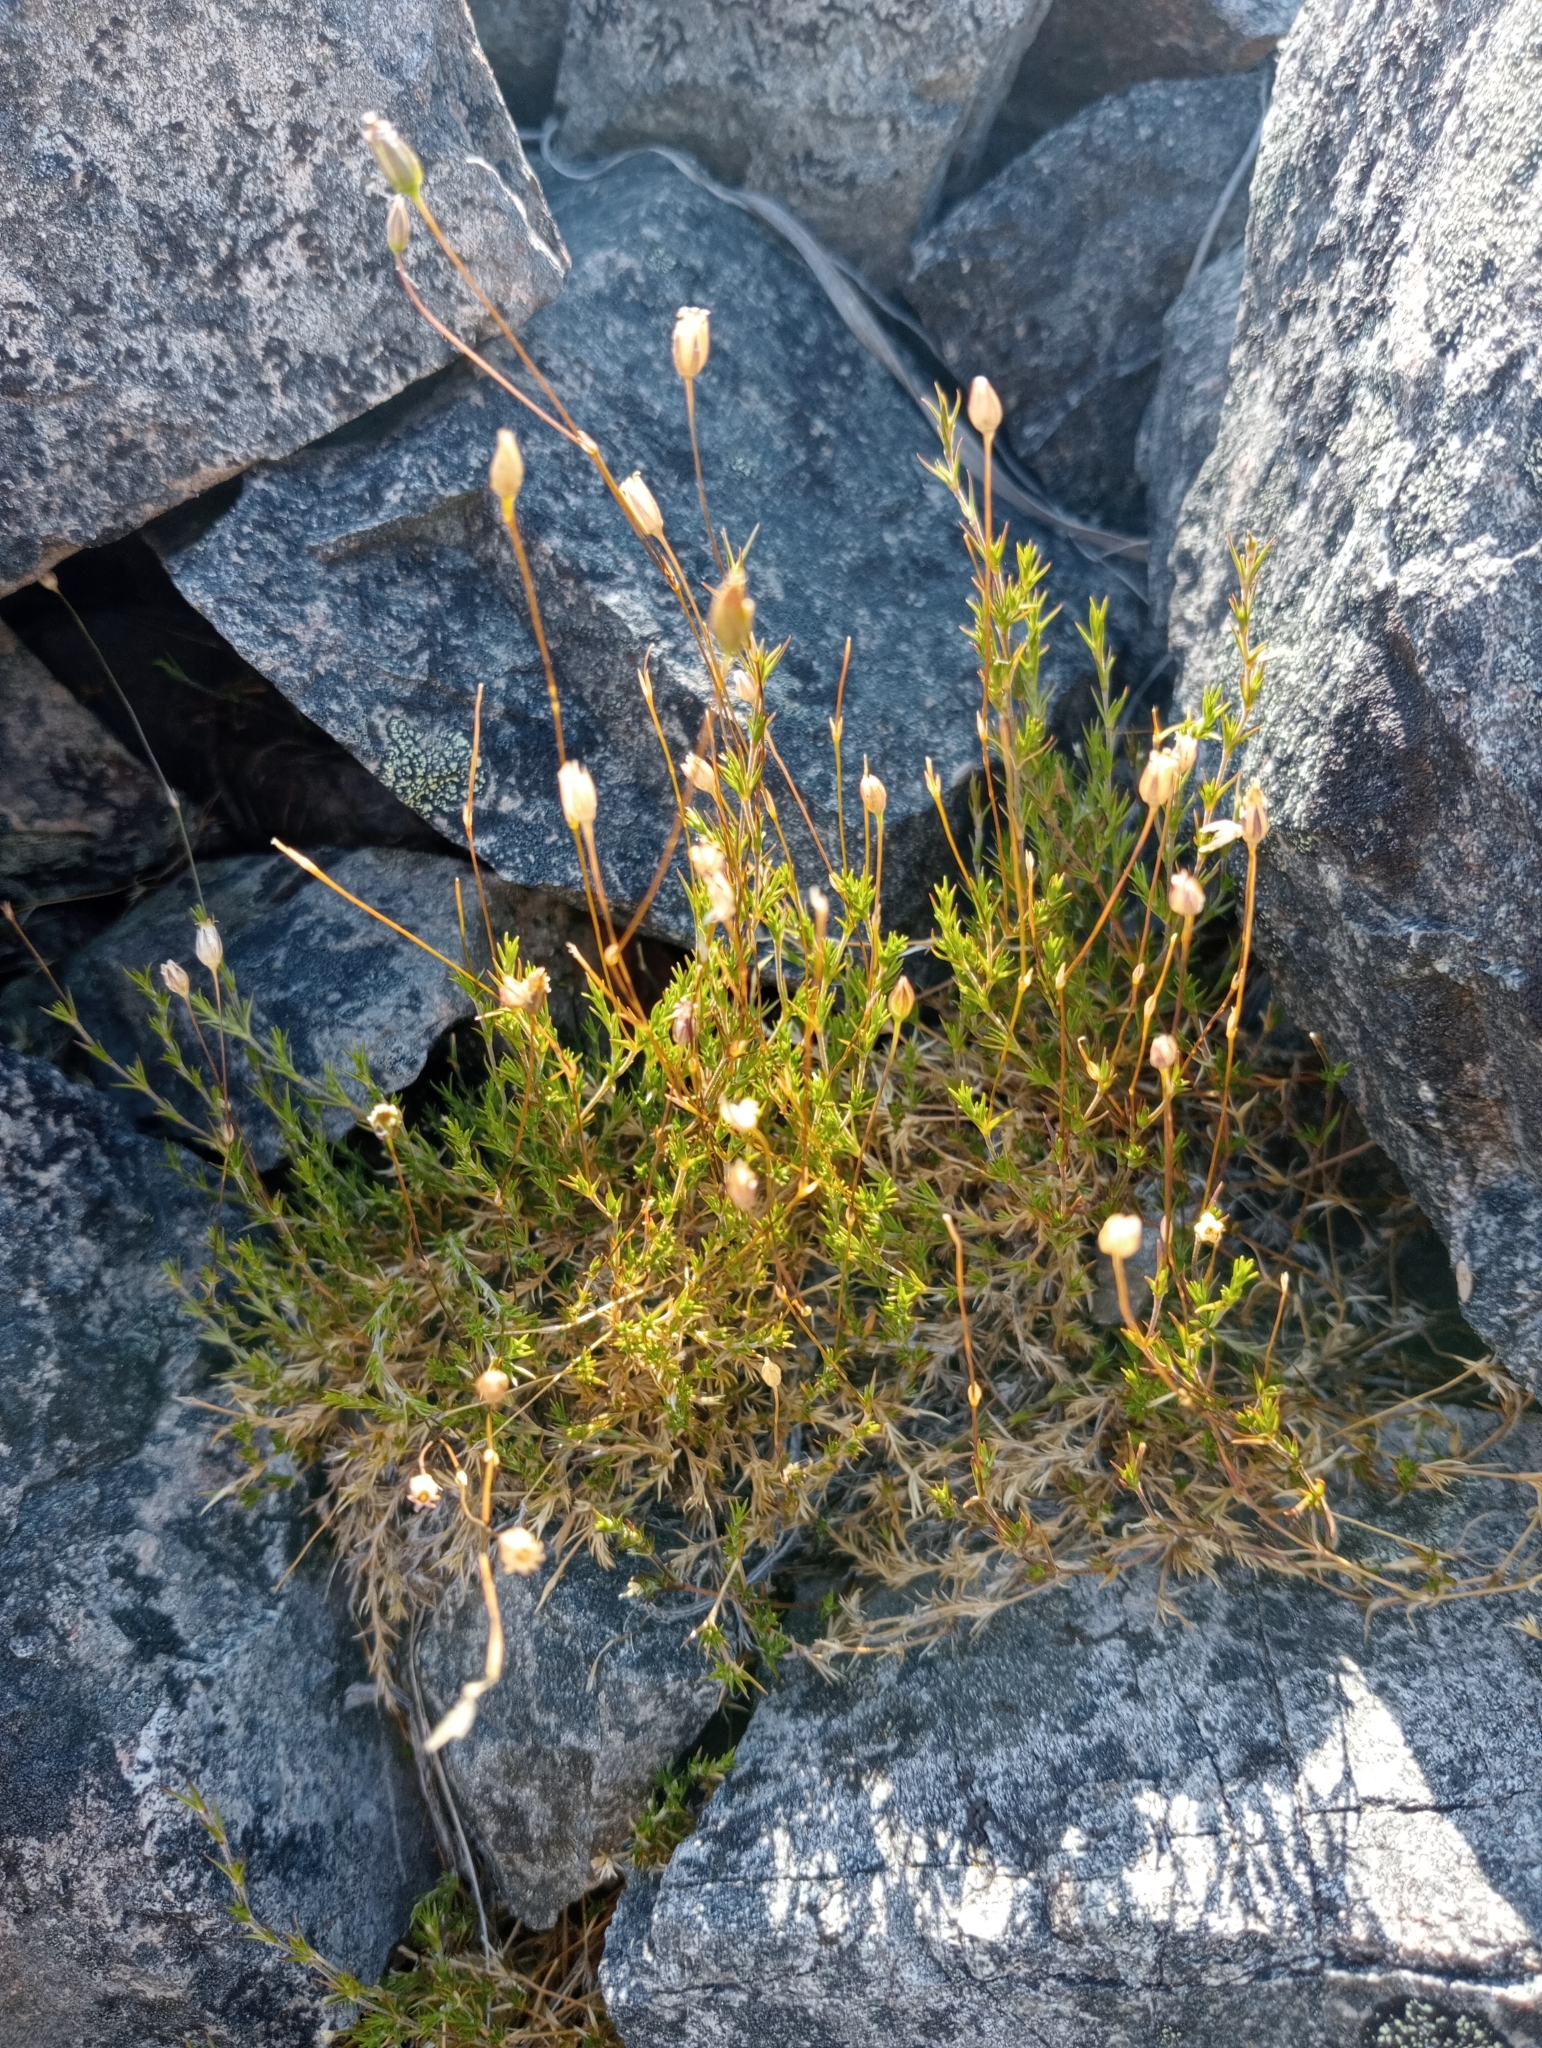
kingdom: Plantae
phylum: Tracheophyta
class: Magnoliopsida
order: Caryophyllales
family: Caryophyllaceae
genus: Stellaria
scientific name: Stellaria gracilenta
